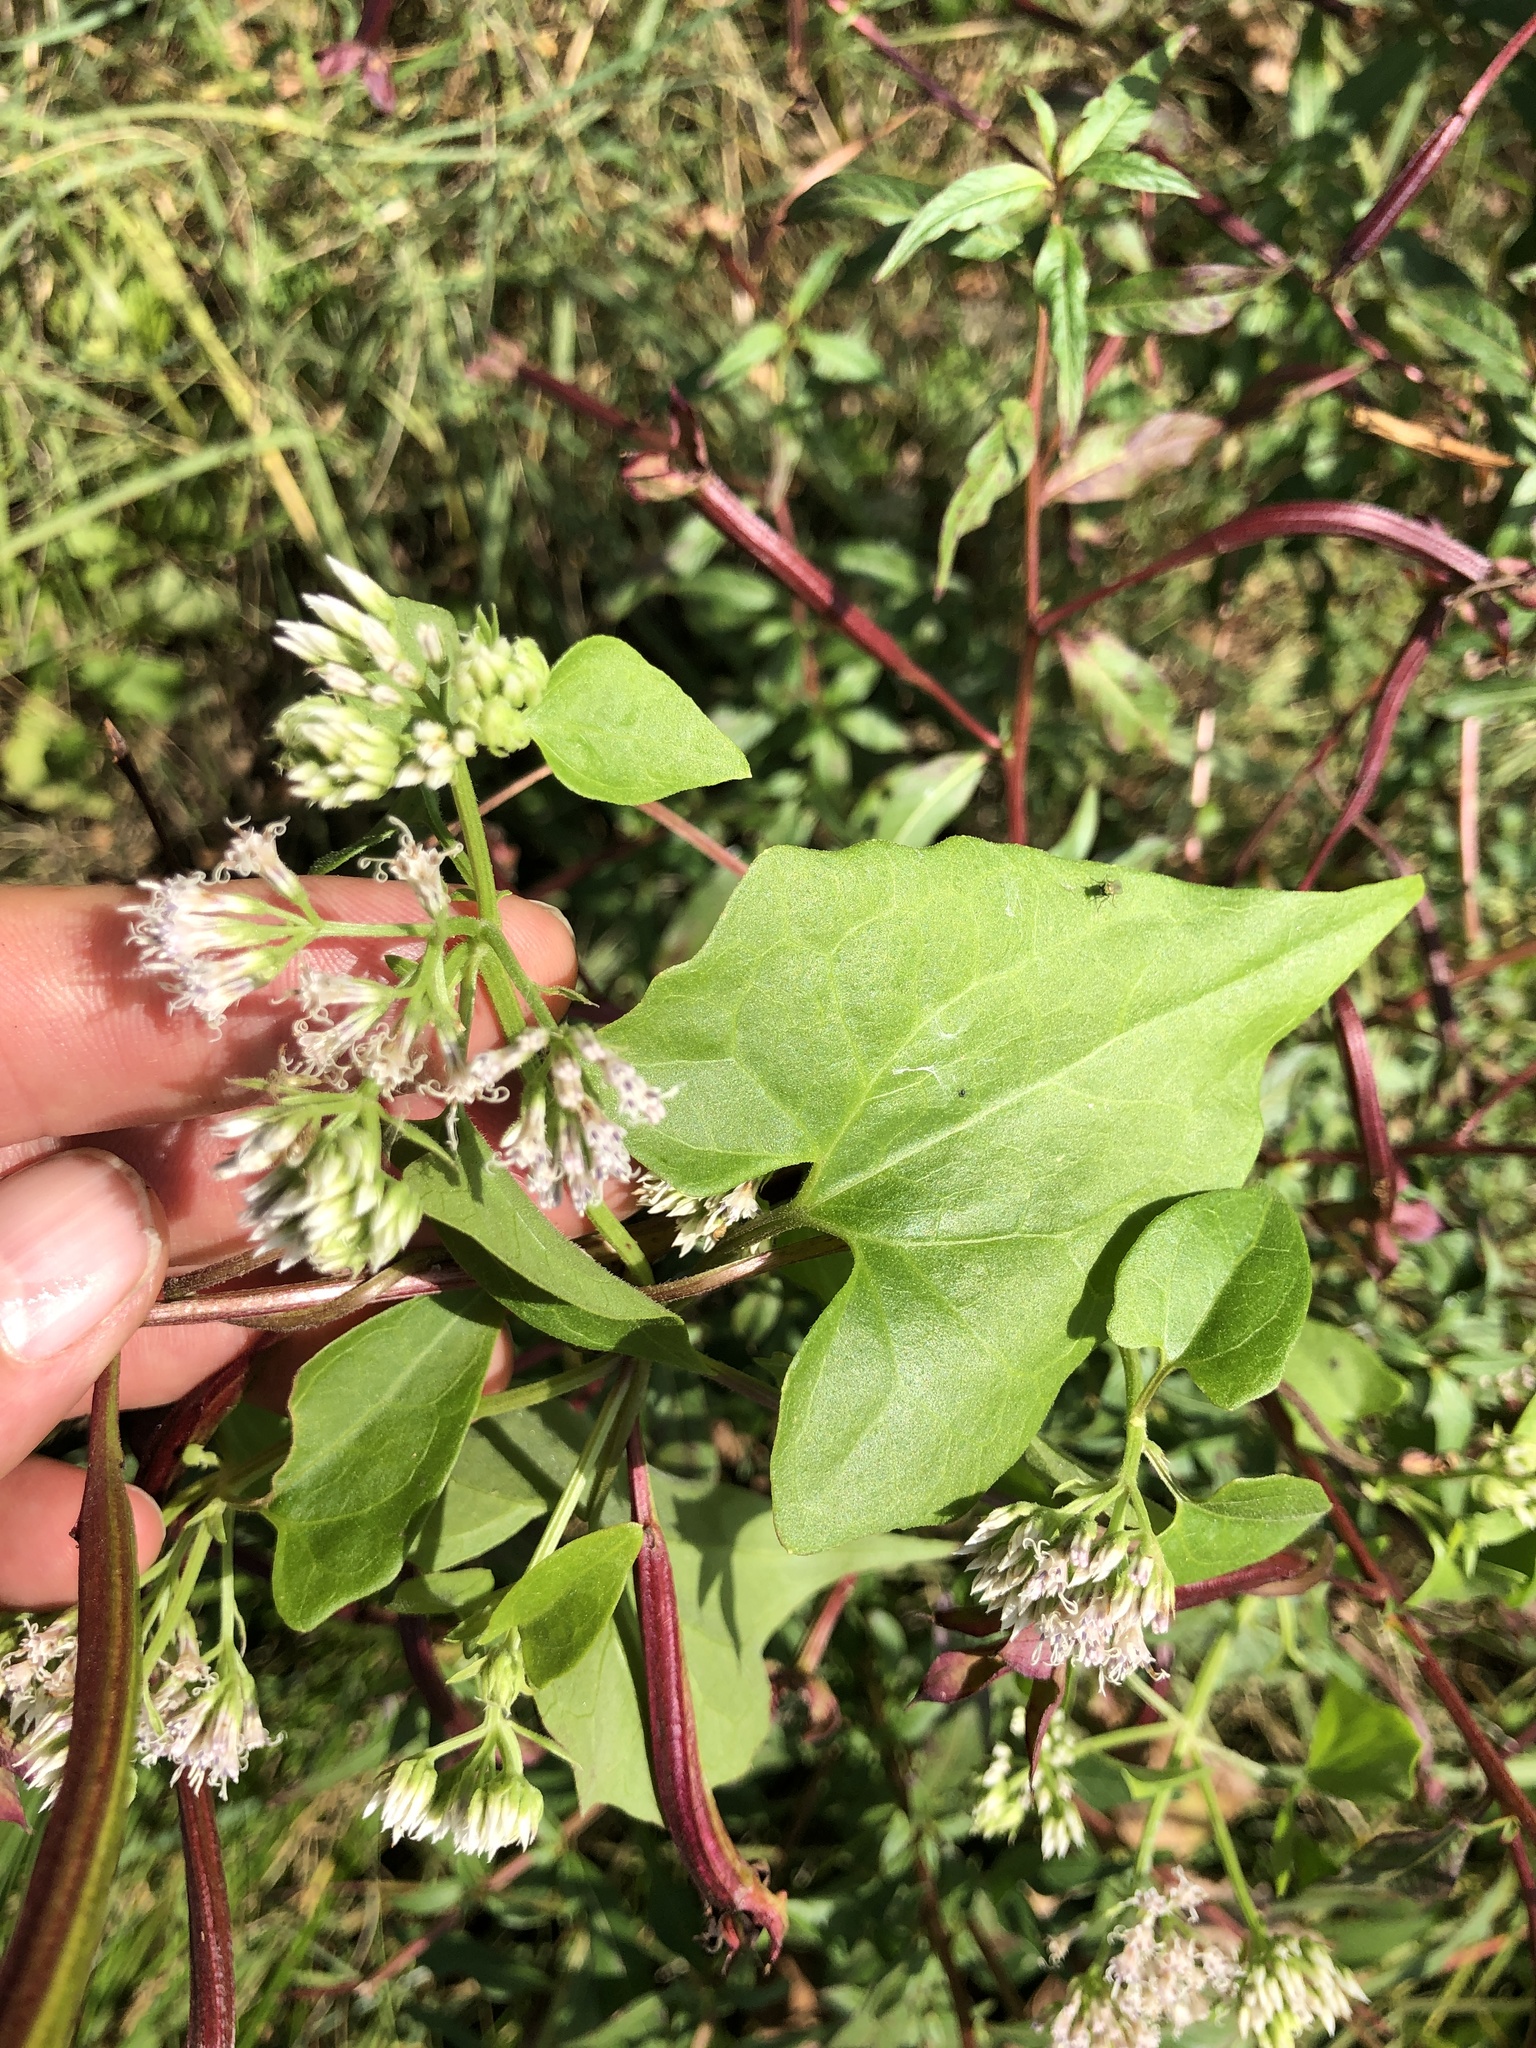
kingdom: Plantae
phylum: Tracheophyta
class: Magnoliopsida
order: Asterales
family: Asteraceae
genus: Mikania
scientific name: Mikania scandens
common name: Climbing hempvine
